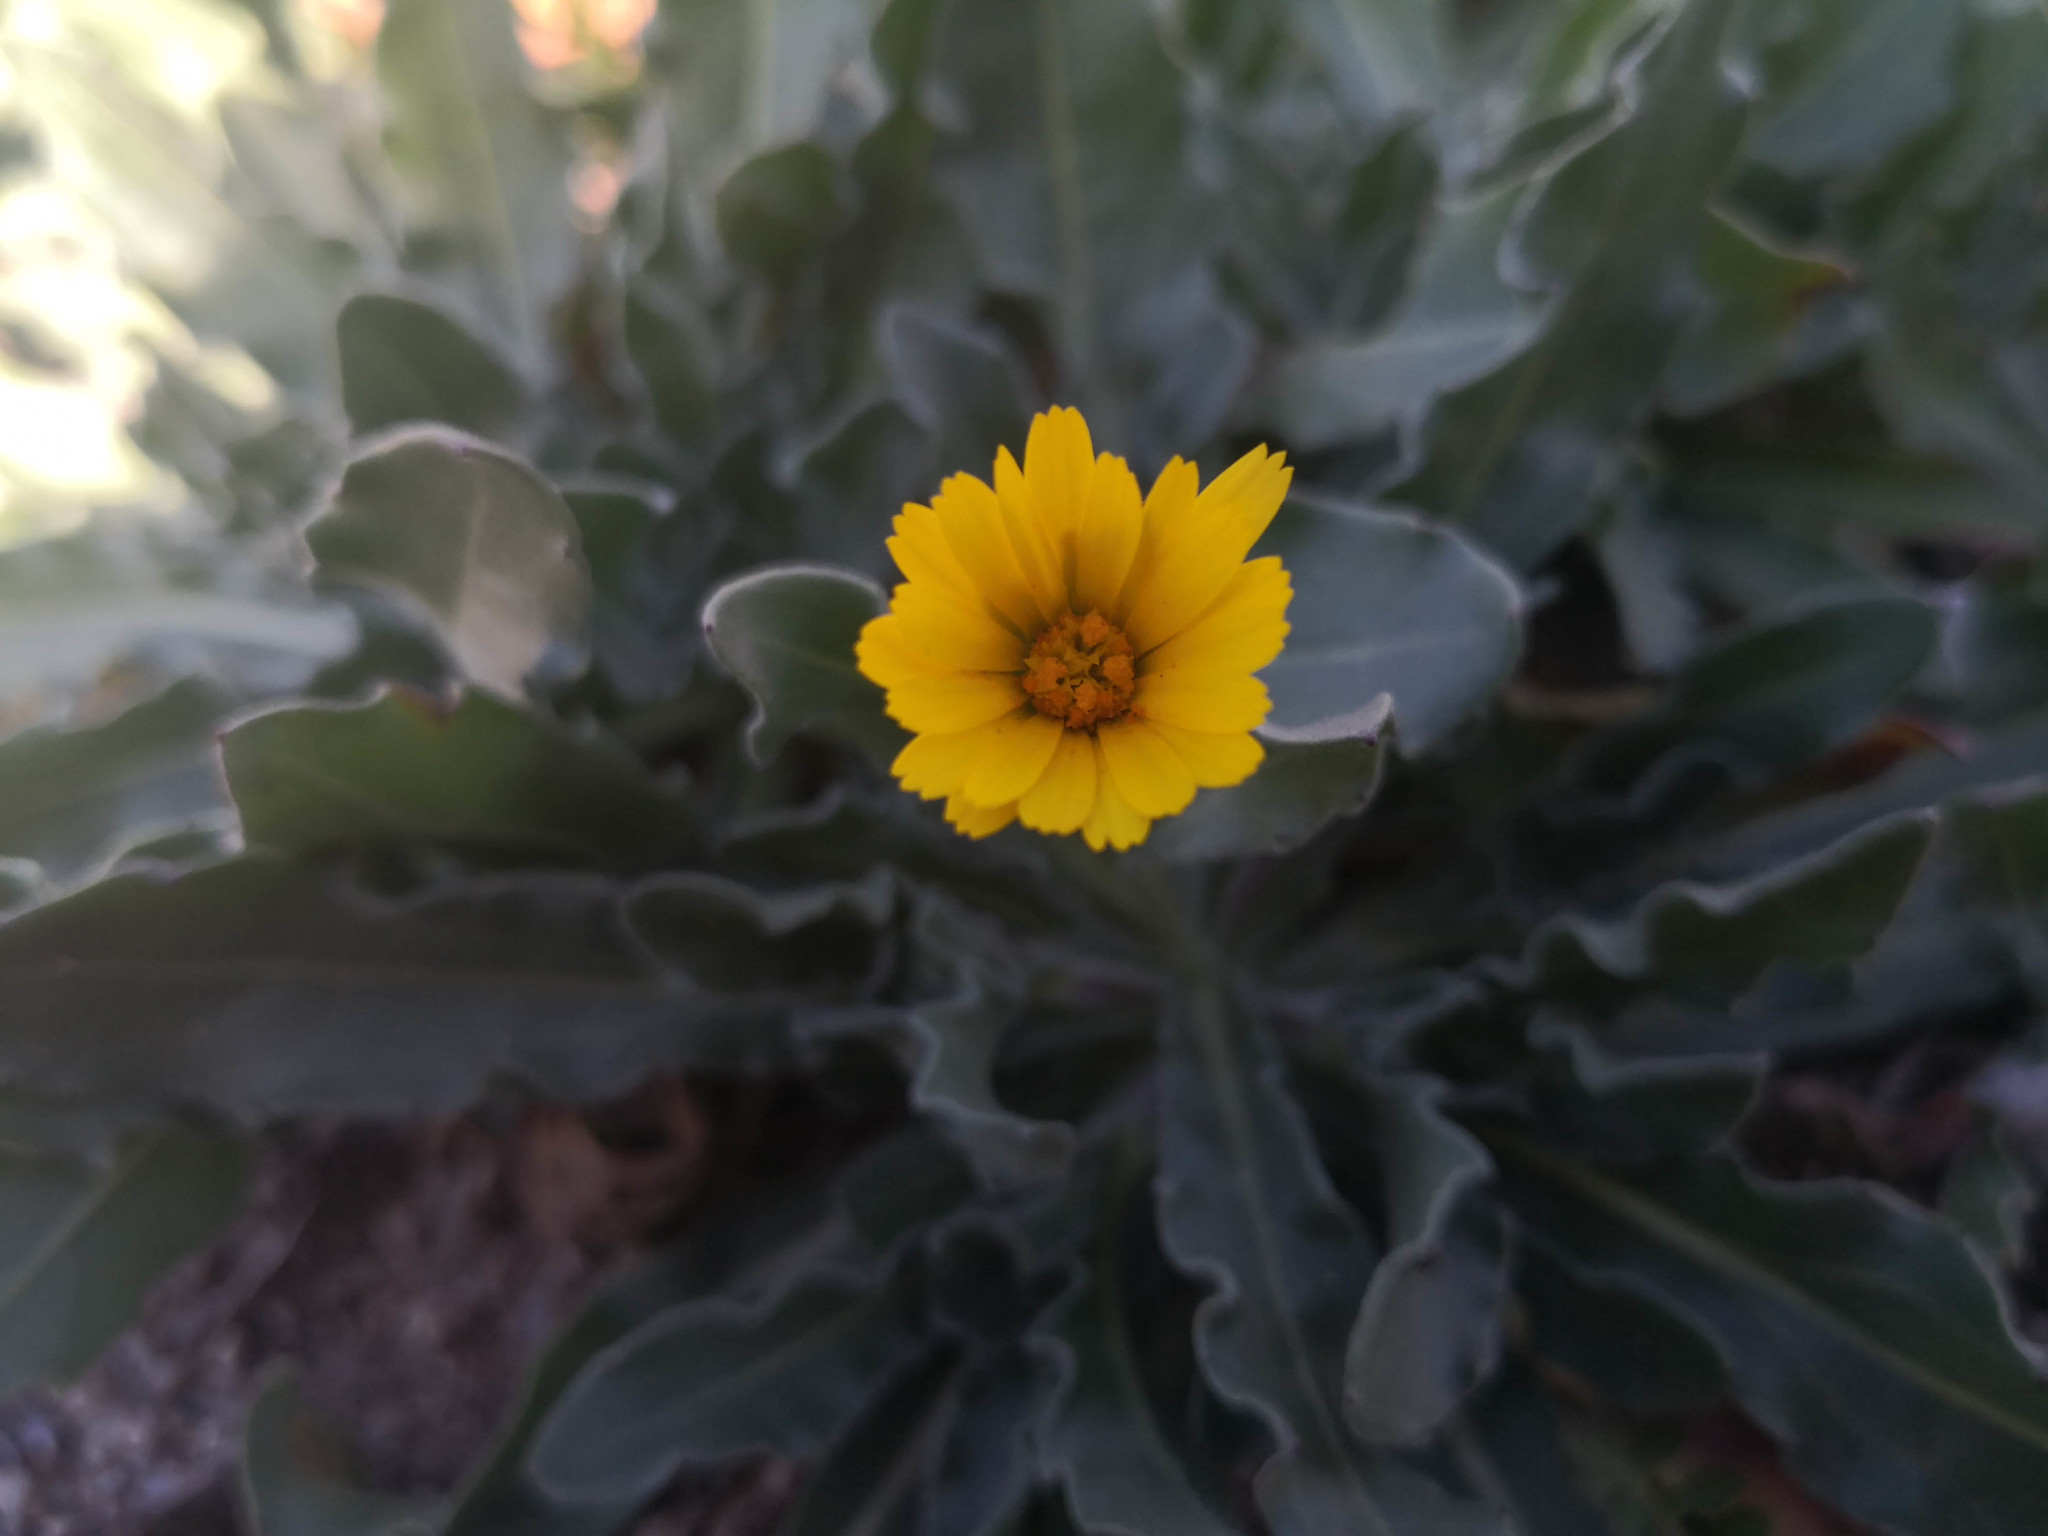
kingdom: Plantae
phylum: Tracheophyta
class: Magnoliopsida
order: Asterales
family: Asteraceae
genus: Calendula
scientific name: Calendula arvensis
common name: Field marigold
